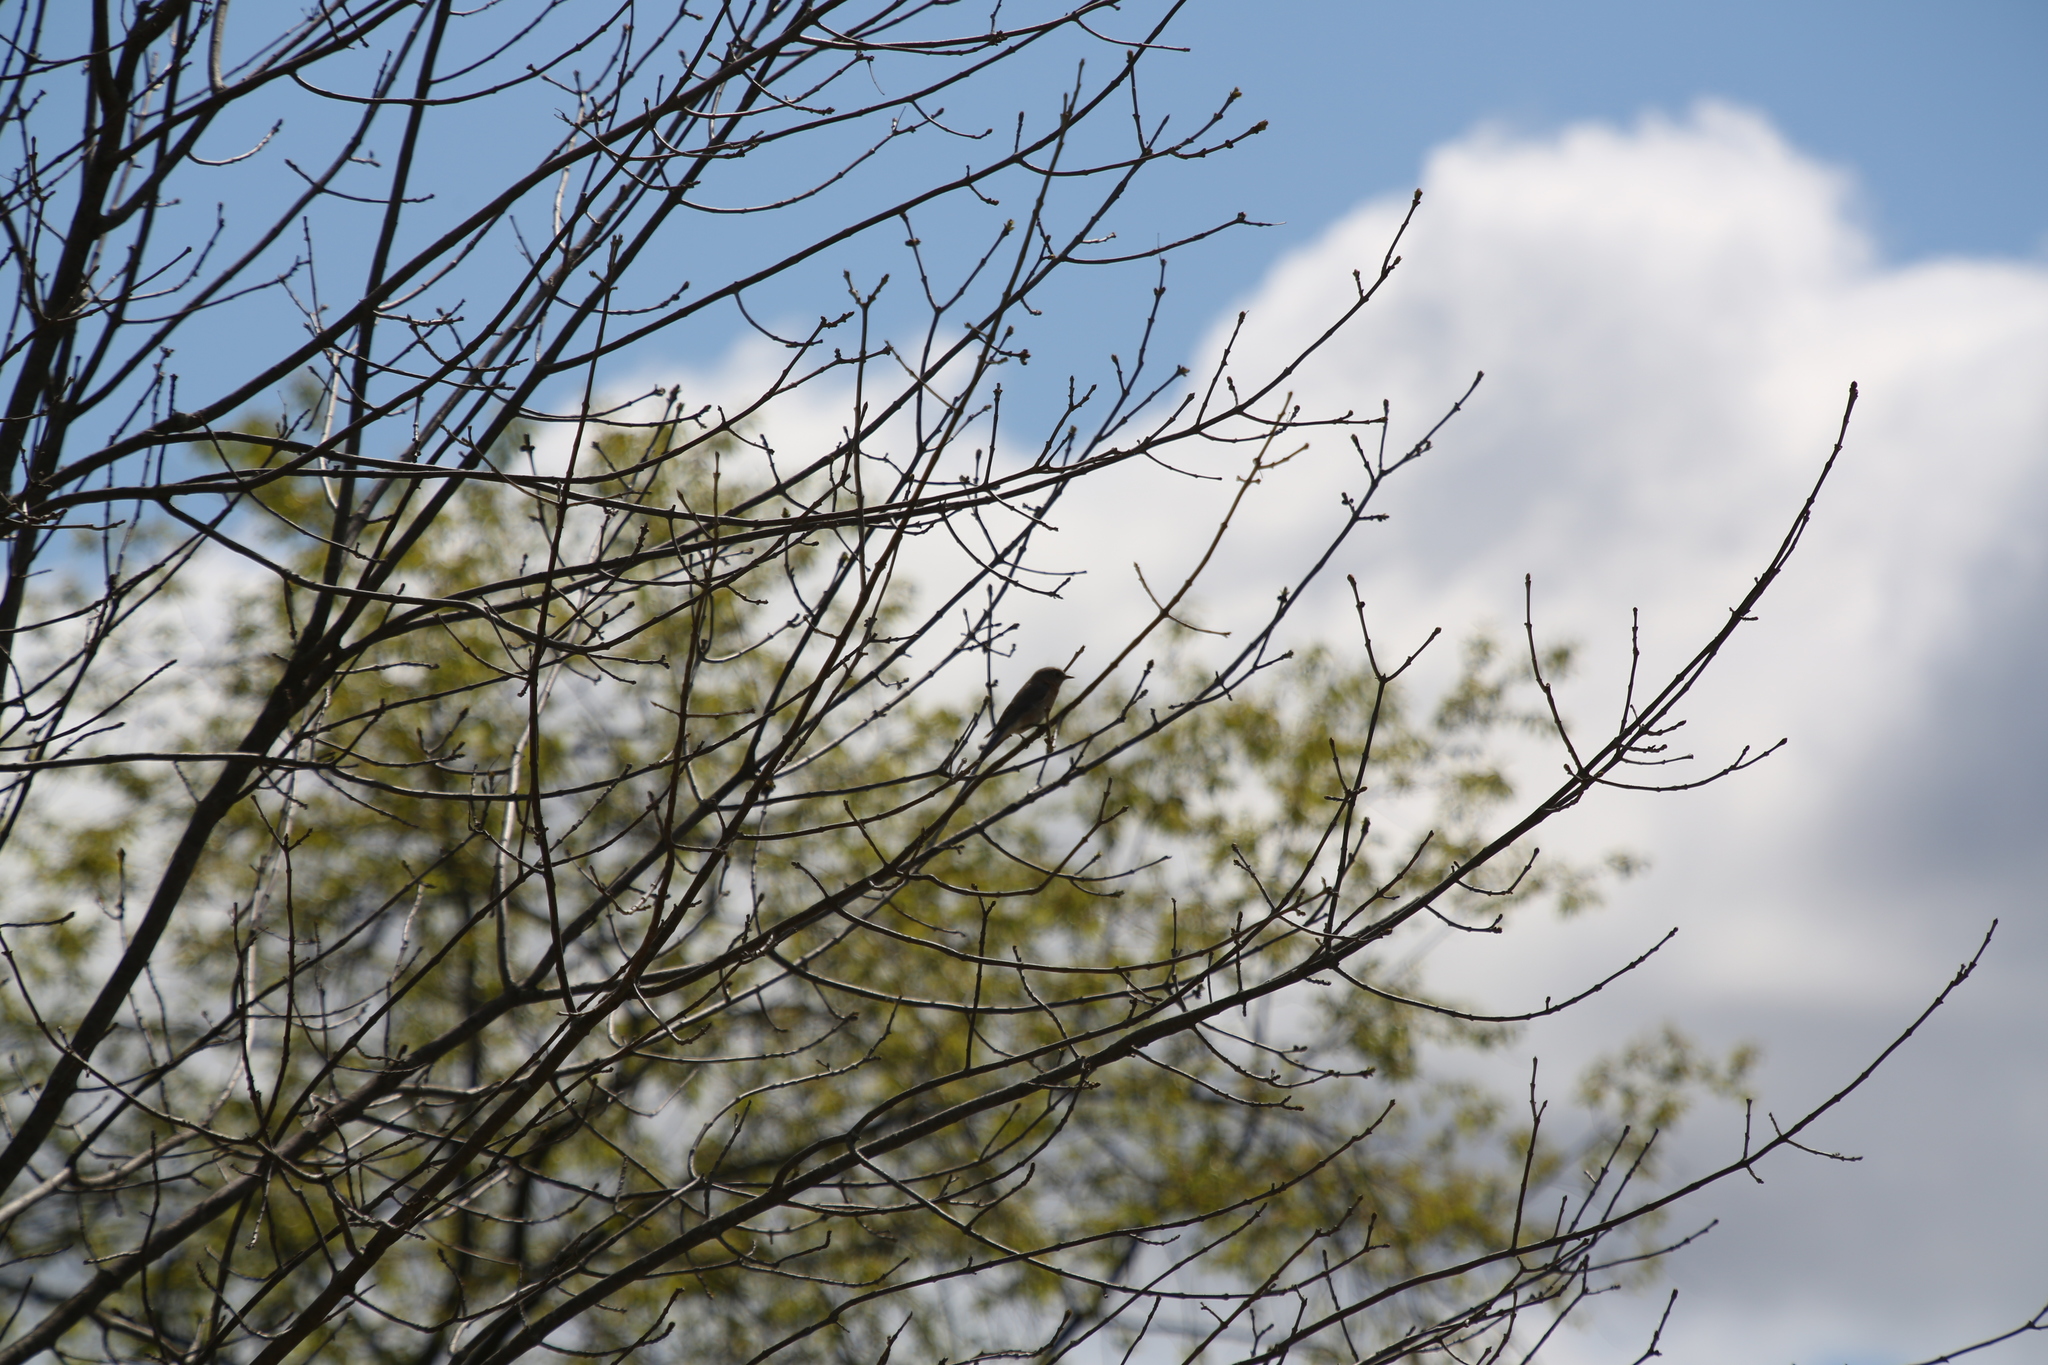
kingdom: Animalia
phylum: Chordata
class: Aves
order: Passeriformes
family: Turdidae
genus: Sialia
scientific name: Sialia sialis
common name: Eastern bluebird
